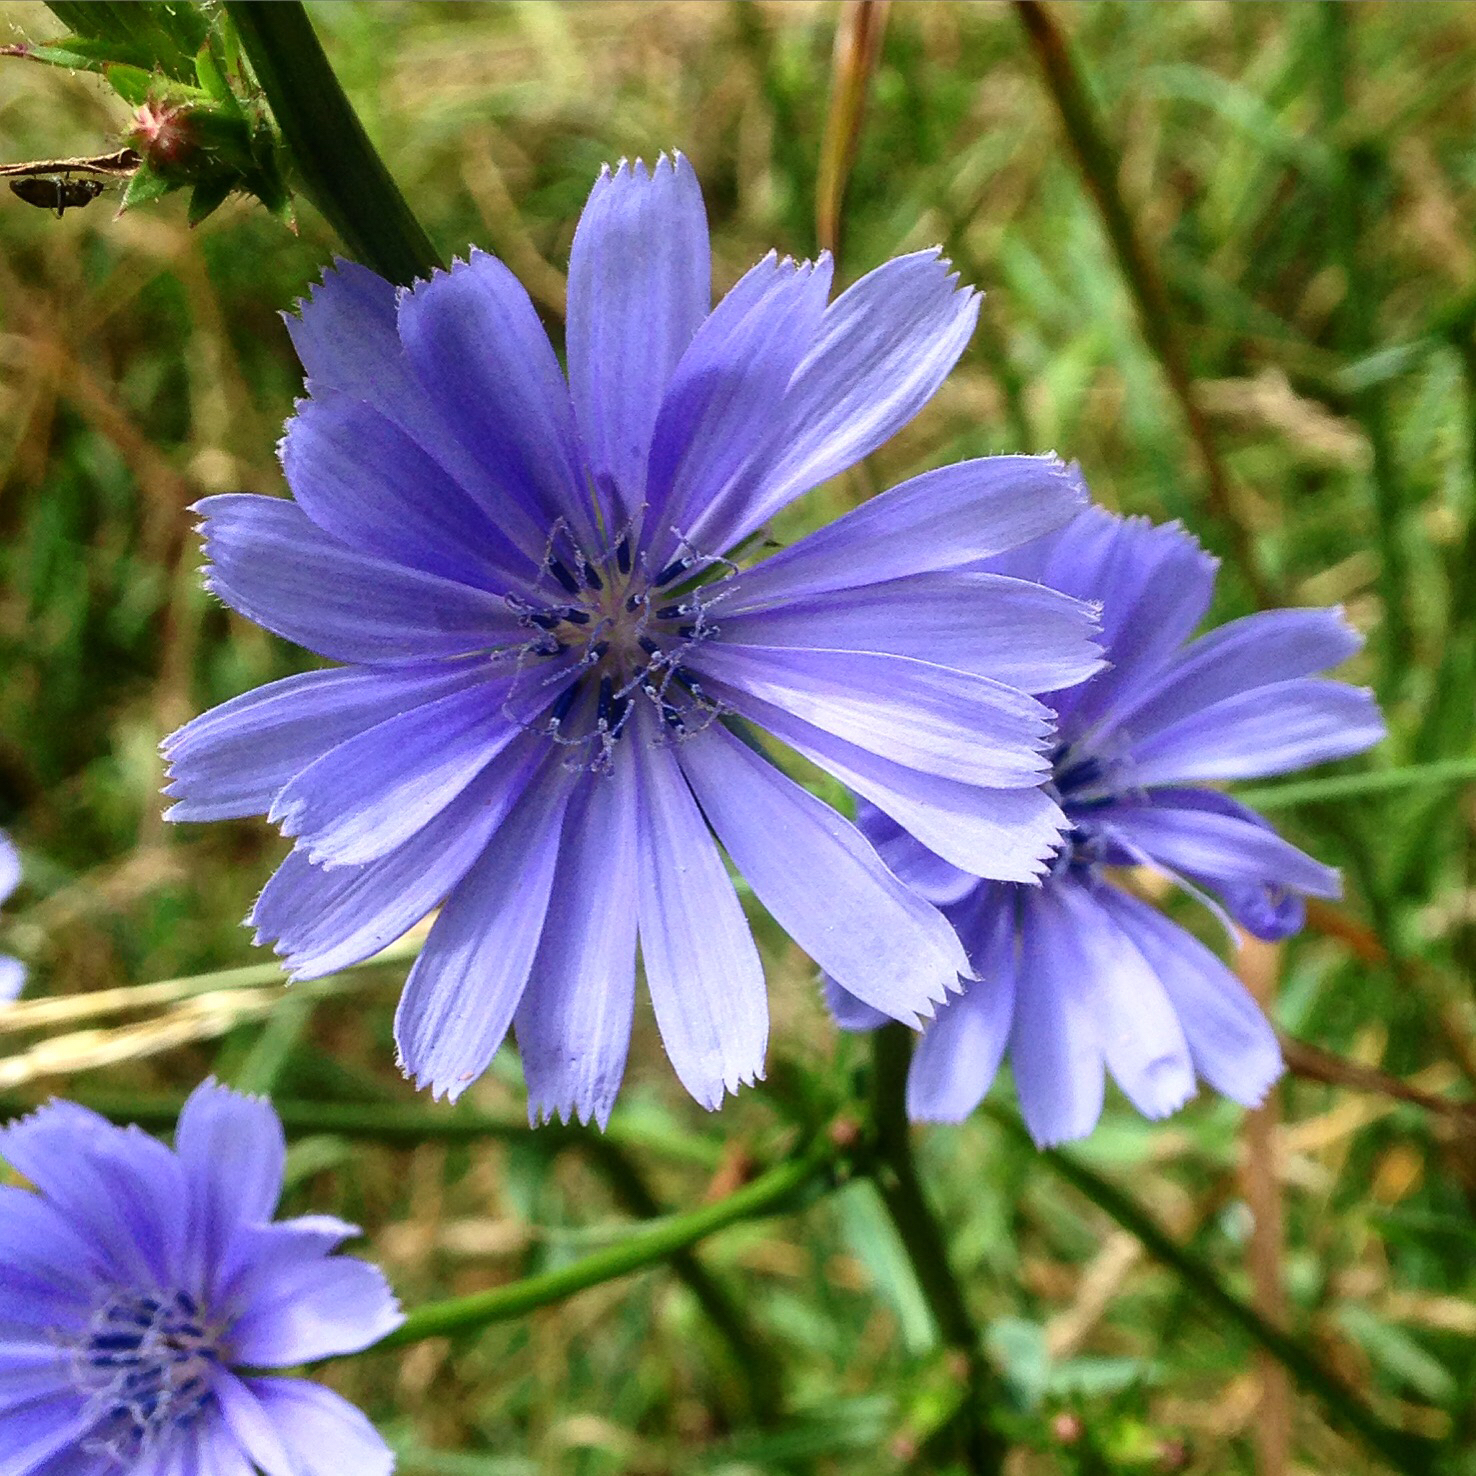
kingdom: Plantae
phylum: Tracheophyta
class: Magnoliopsida
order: Asterales
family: Asteraceae
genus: Cichorium
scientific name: Cichorium intybus
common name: Chicory
